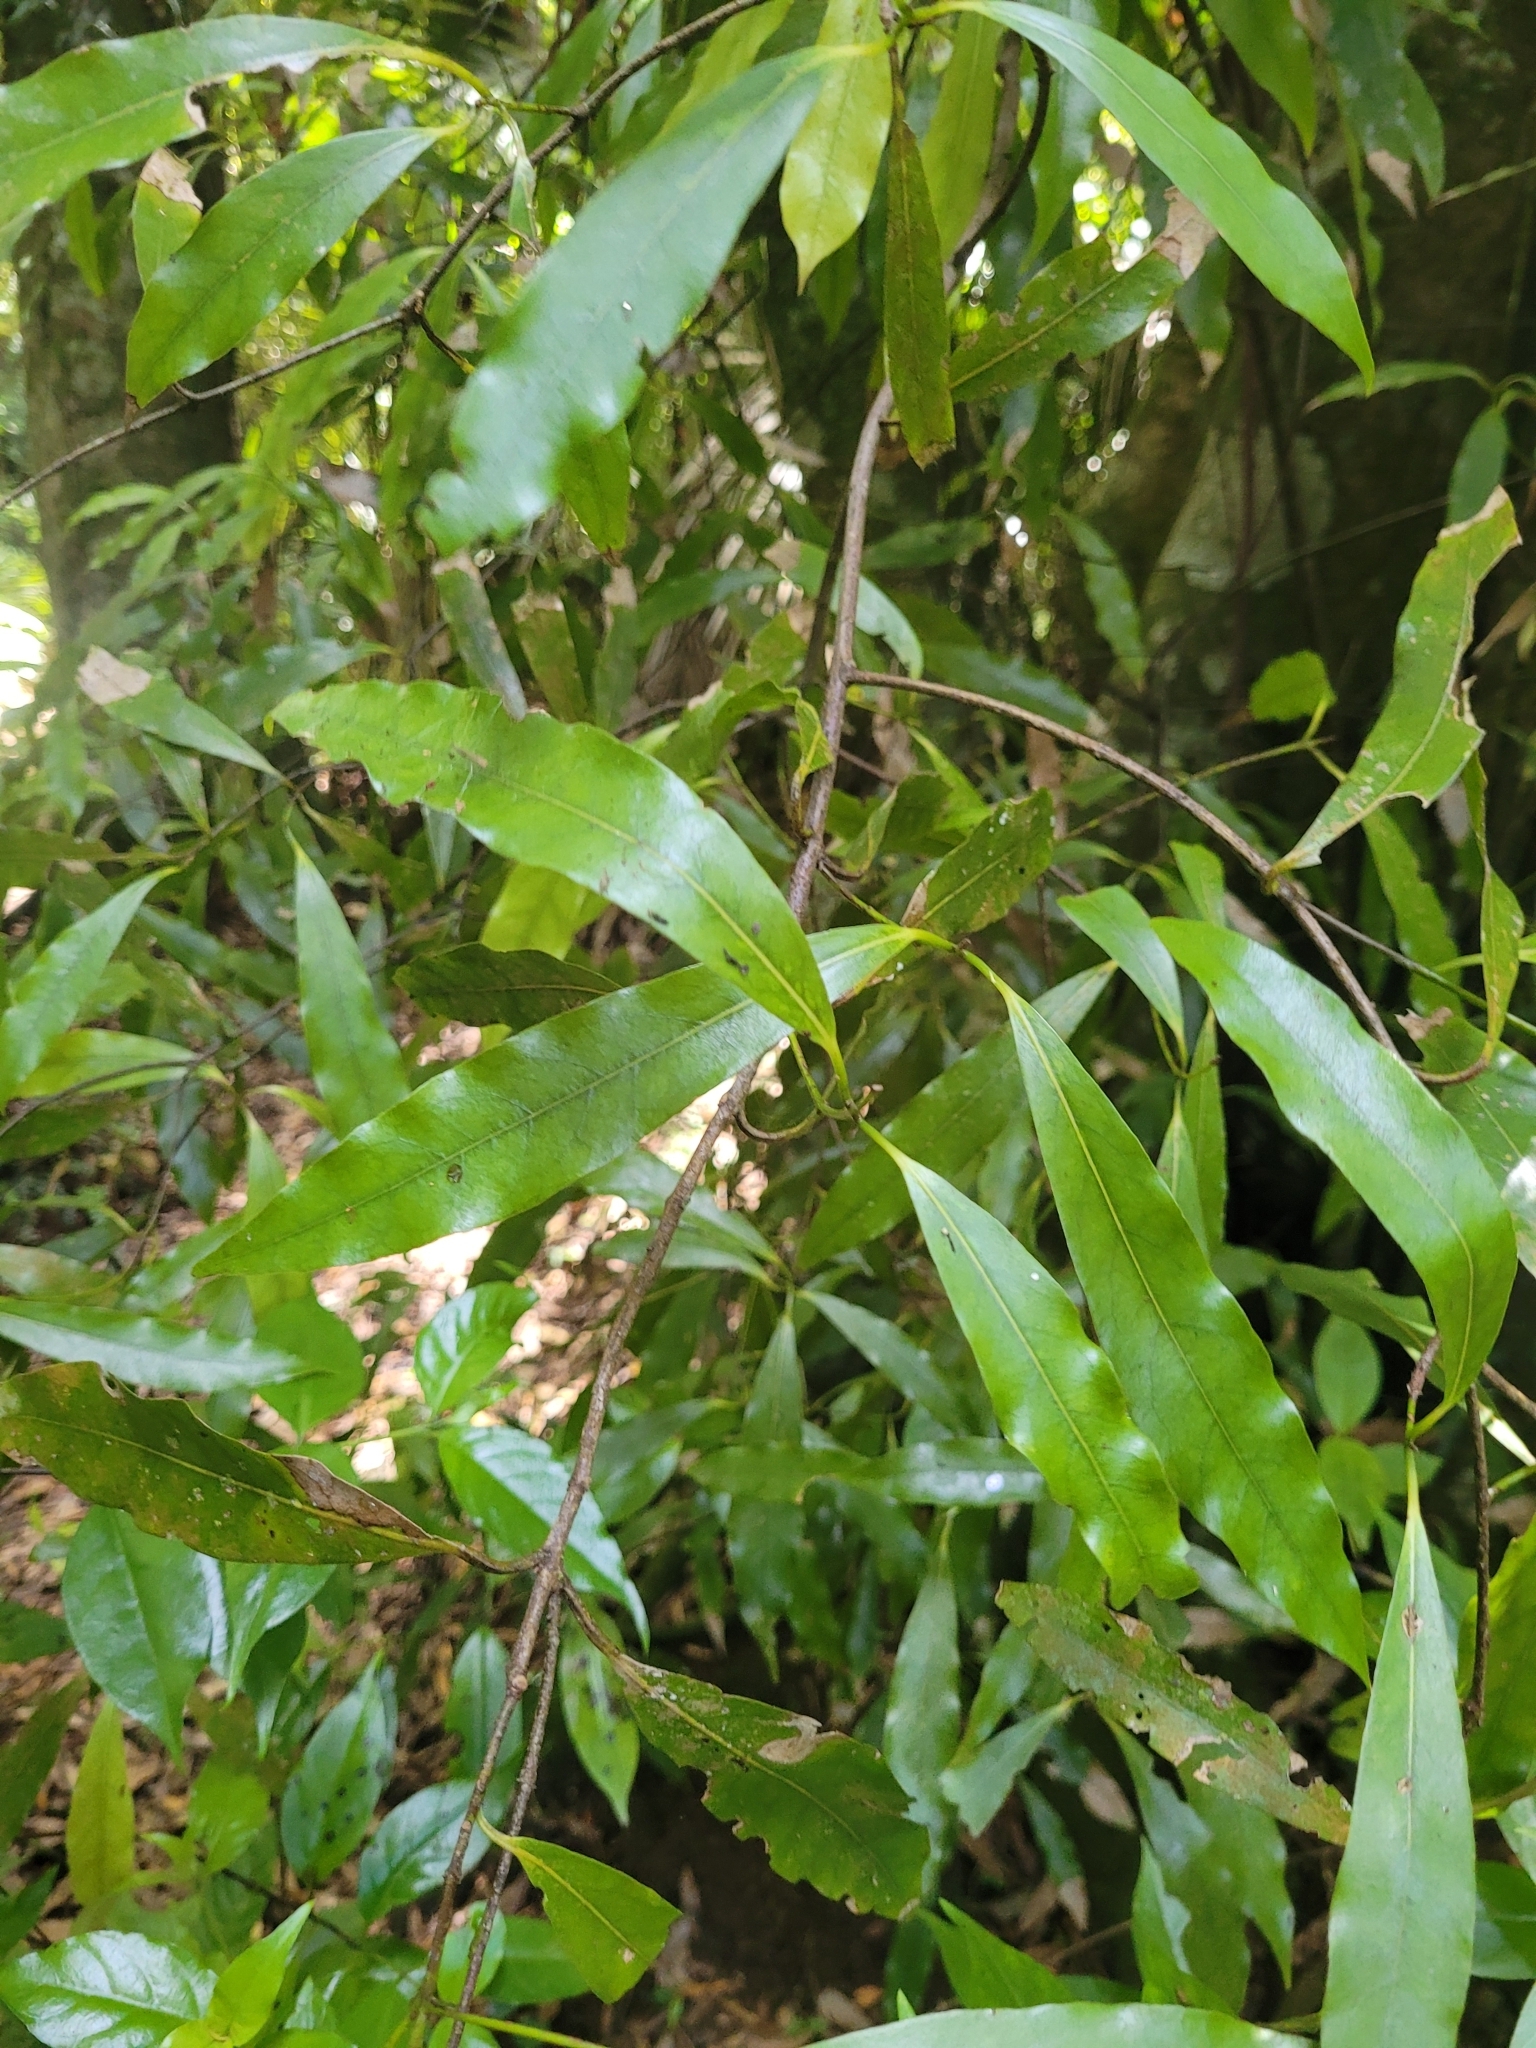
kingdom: Plantae
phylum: Tracheophyta
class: Magnoliopsida
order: Laurales
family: Lauraceae
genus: Beilschmiedia
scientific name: Beilschmiedia tawa
